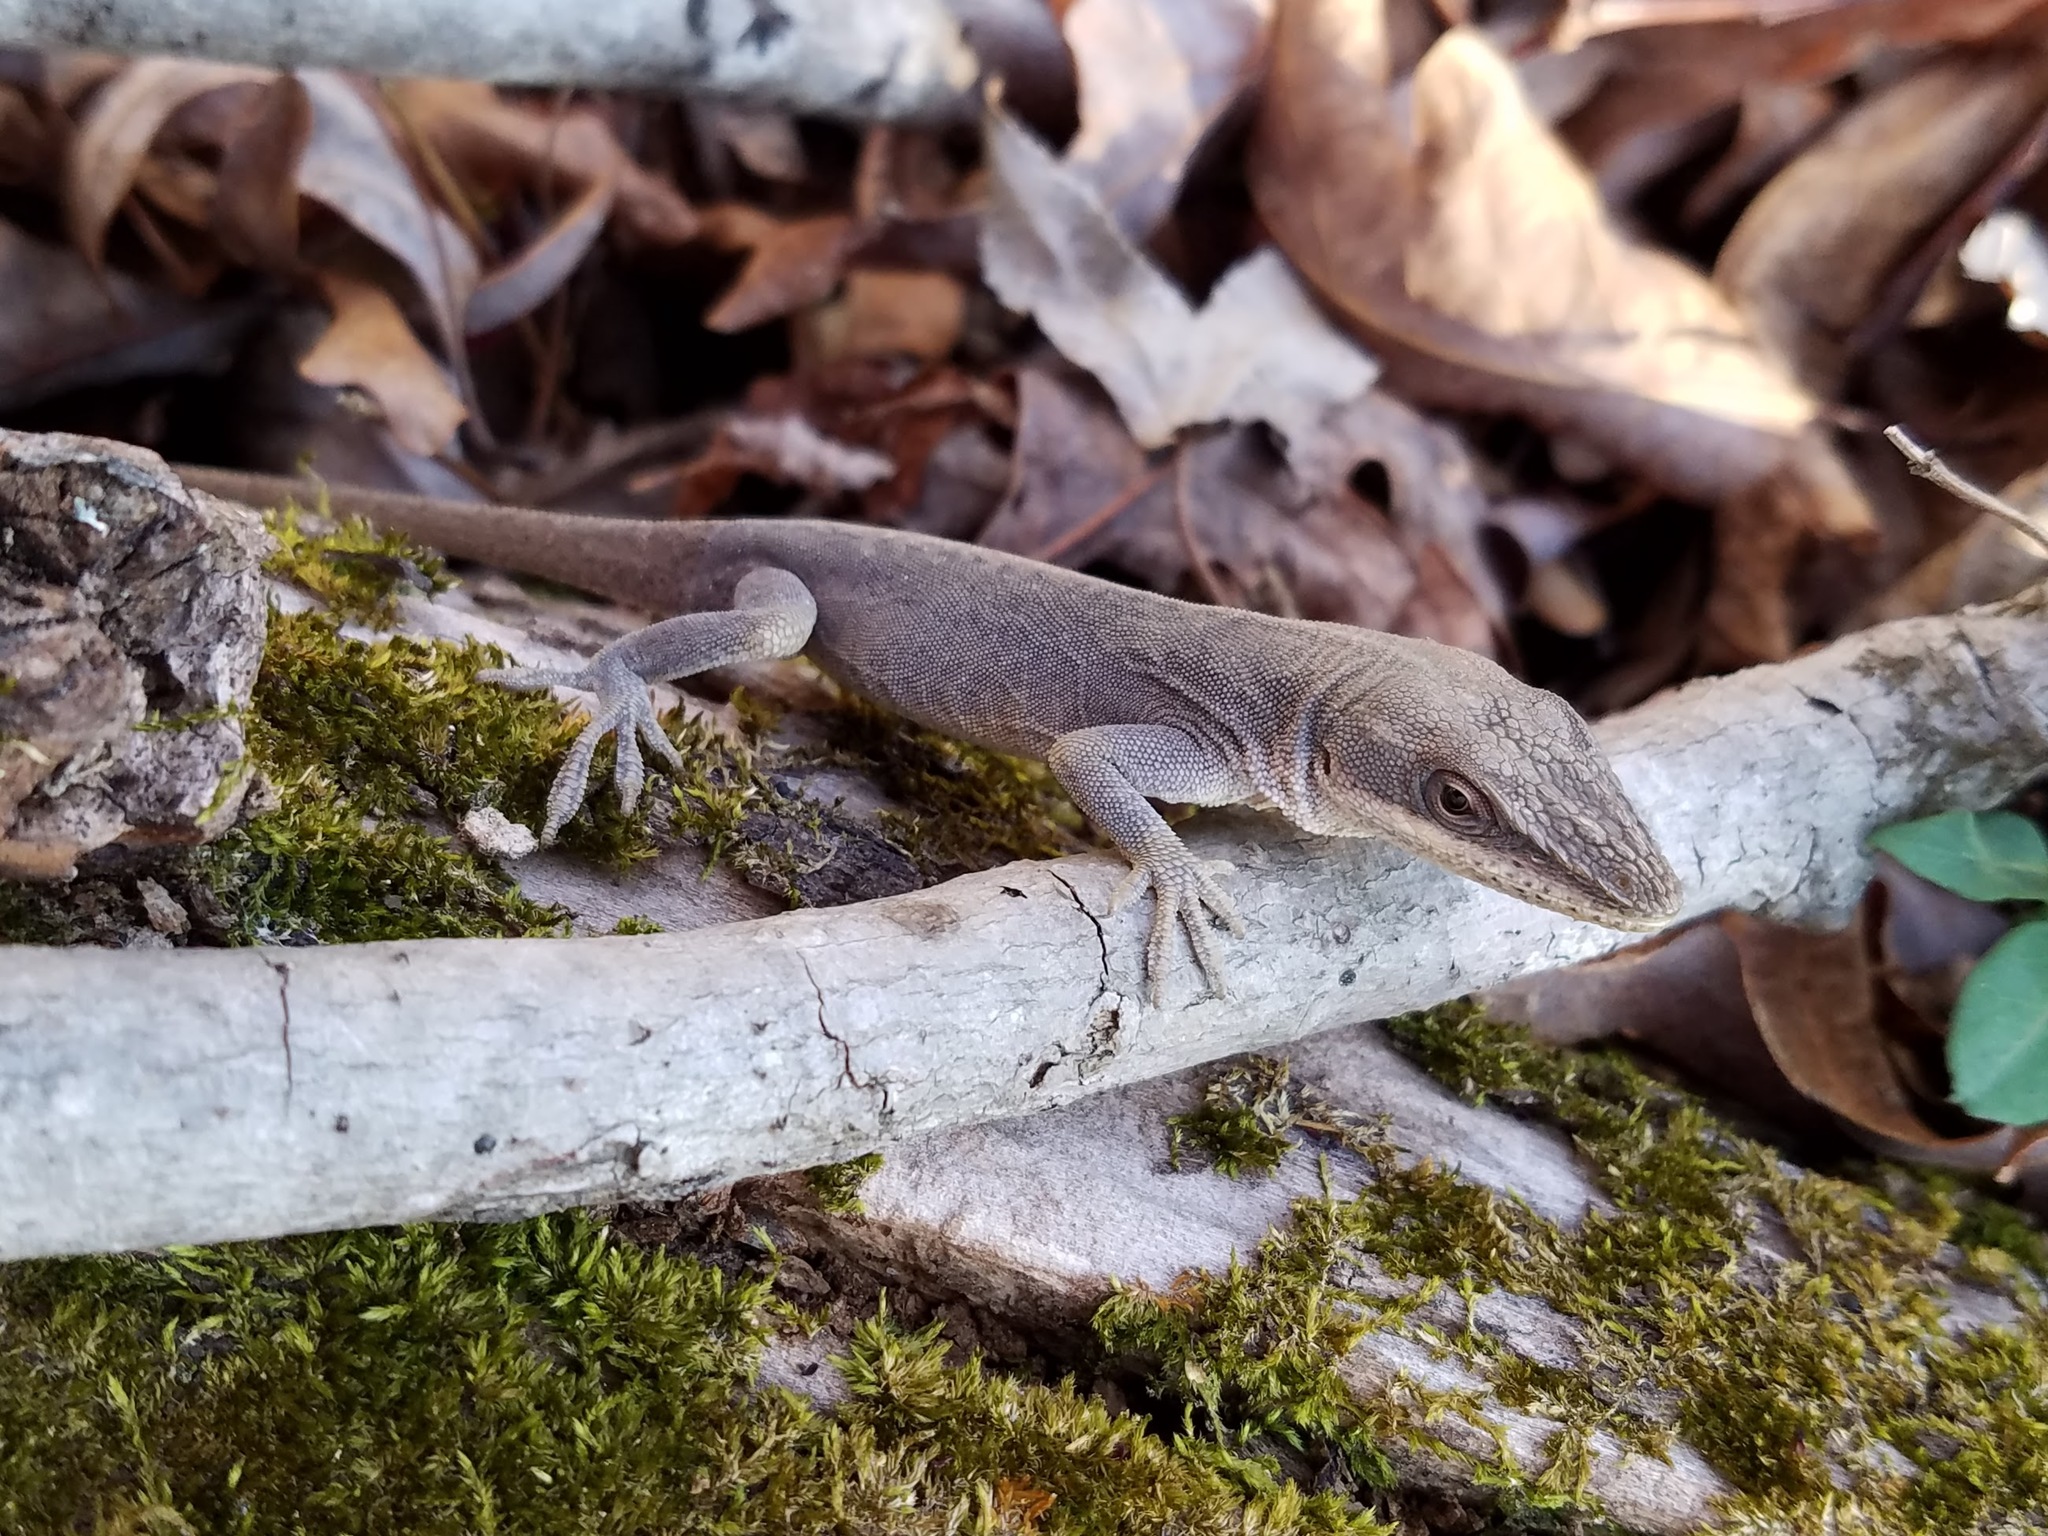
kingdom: Animalia
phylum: Chordata
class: Squamata
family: Dactyloidae
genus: Anolis
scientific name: Anolis carolinensis
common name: Green anole
